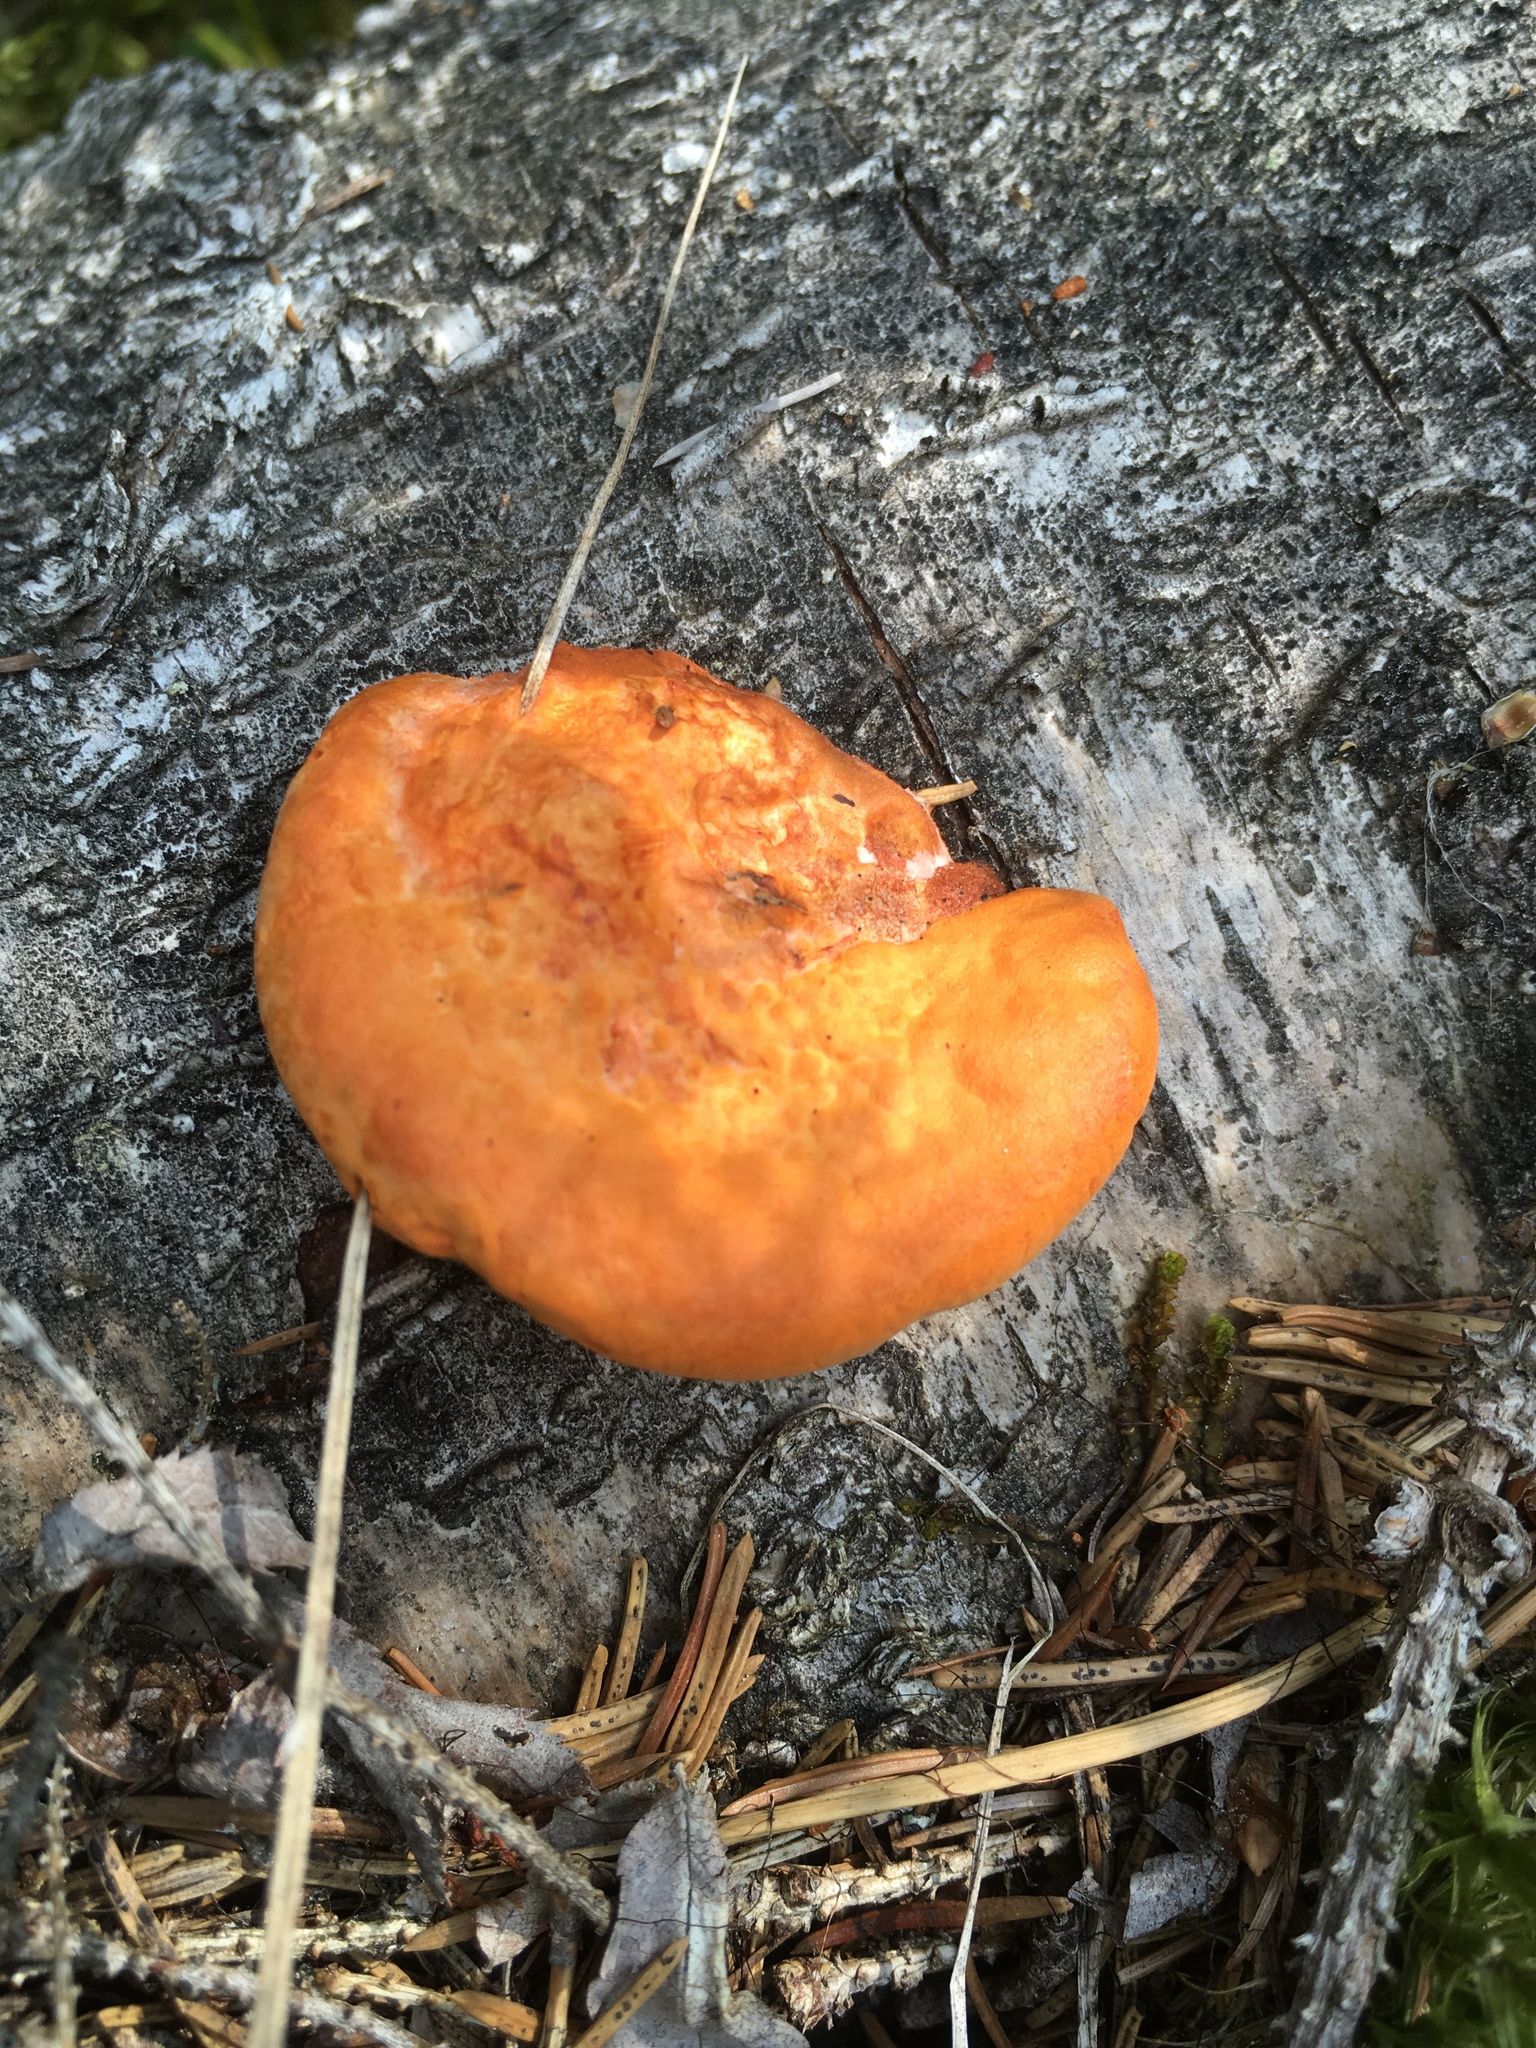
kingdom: Fungi
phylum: Basidiomycota
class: Agaricomycetes
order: Polyporales
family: Polyporaceae
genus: Trametes
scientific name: Trametes cinnabarina
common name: Northern cinnabar polypore
